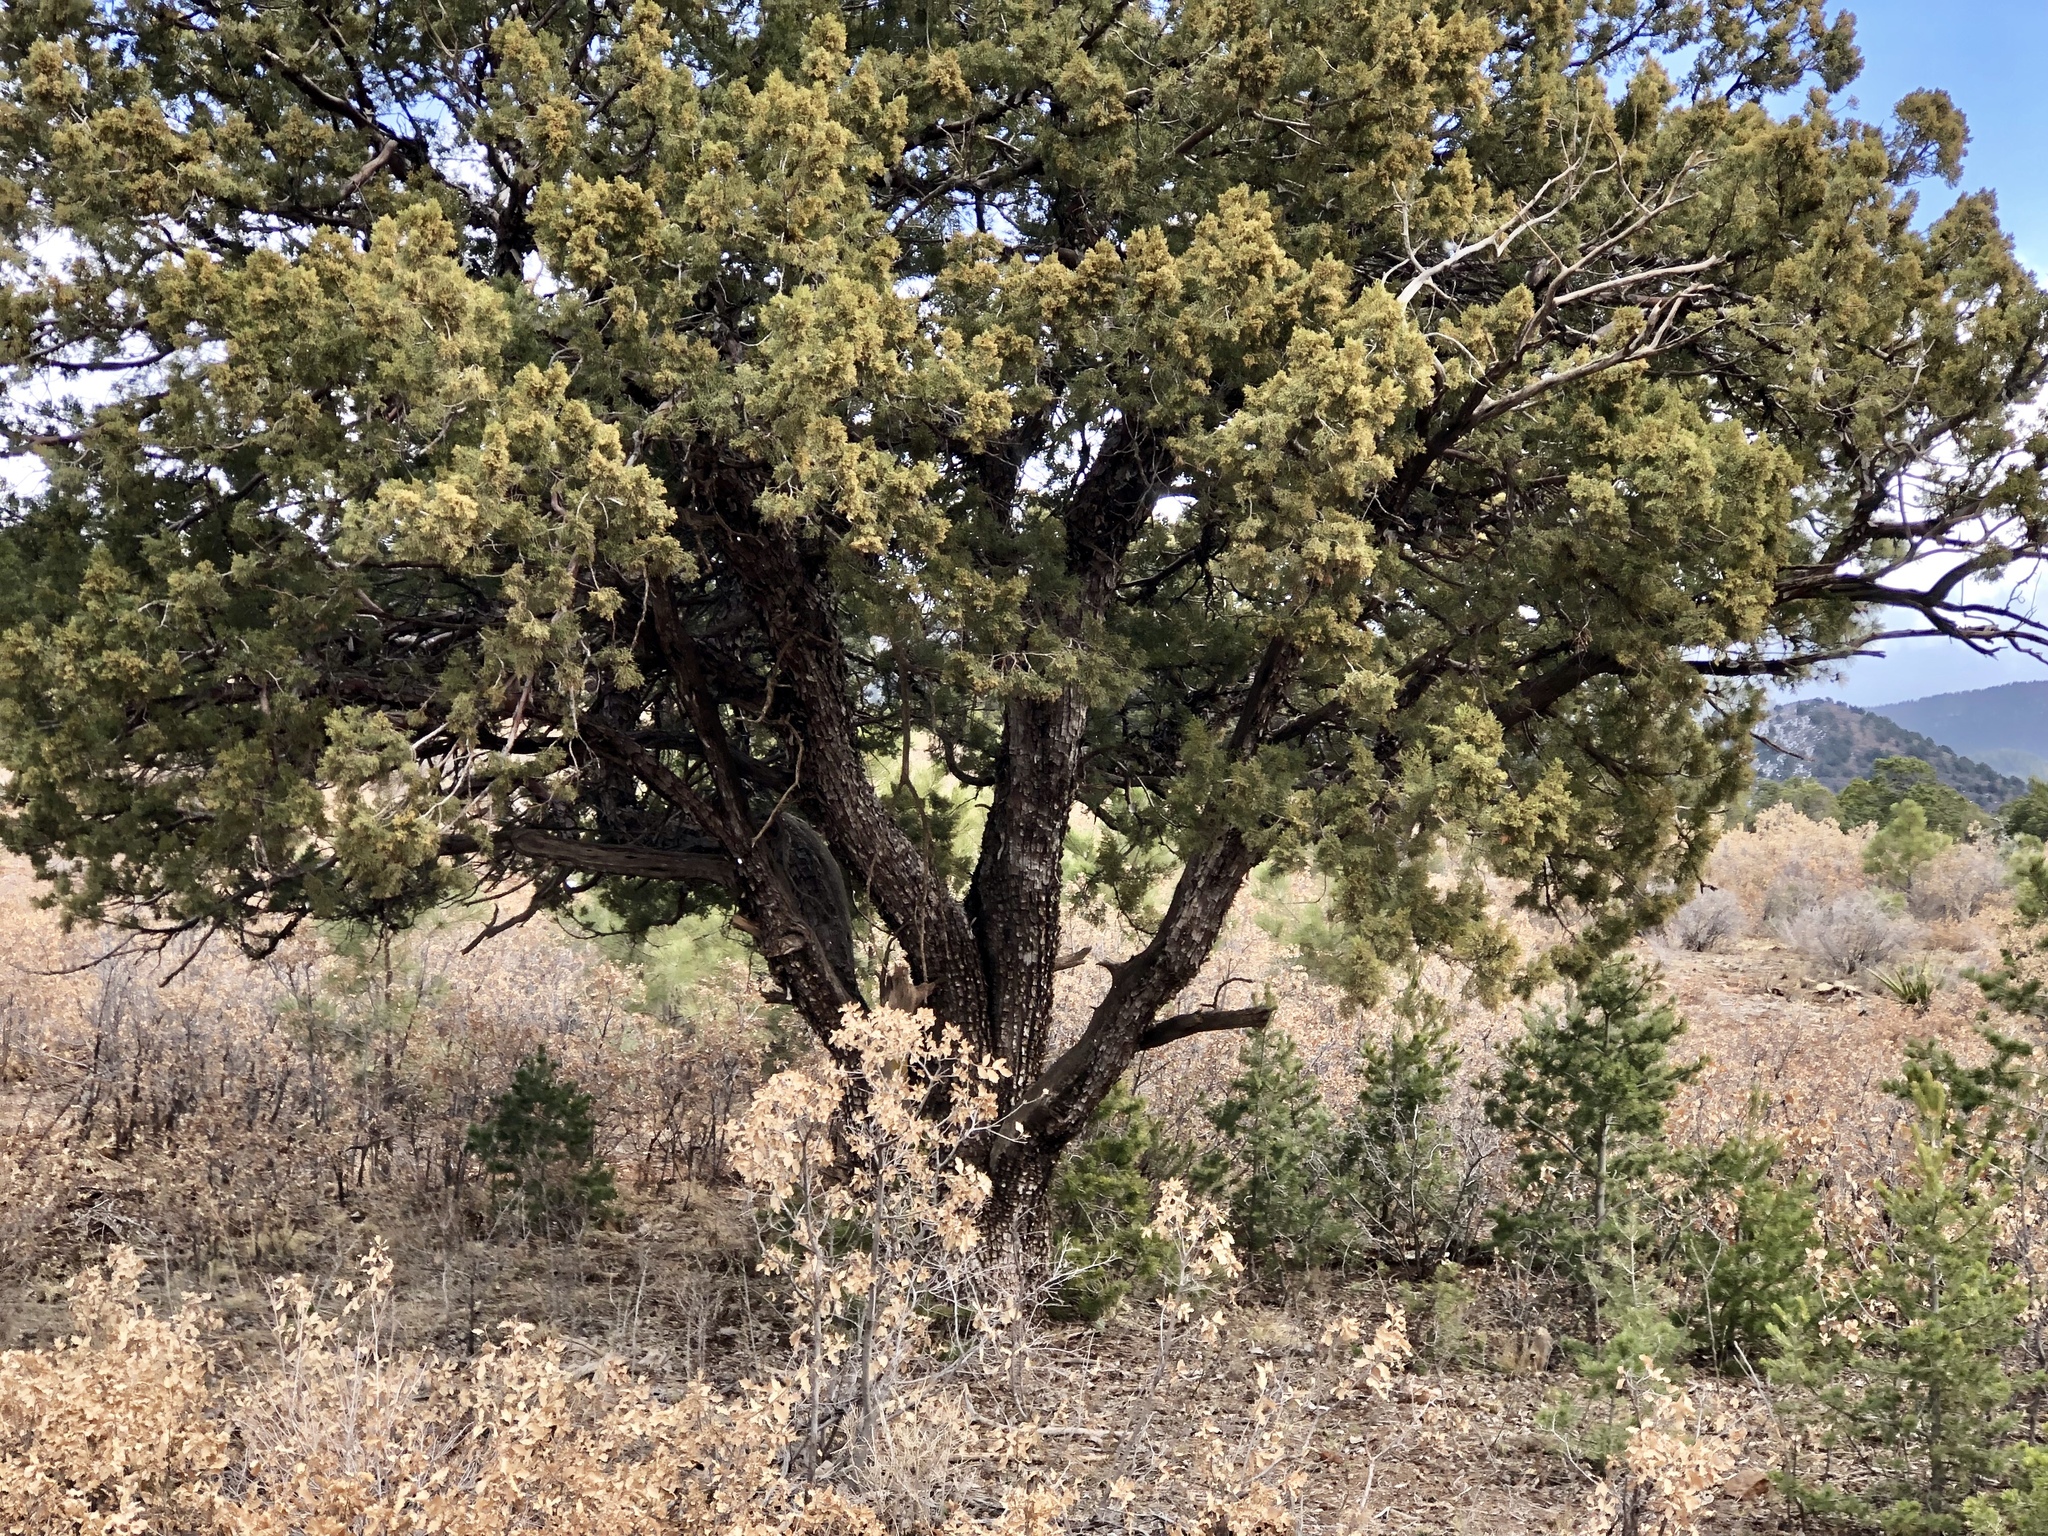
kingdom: Plantae
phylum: Tracheophyta
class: Pinopsida
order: Pinales
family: Cupressaceae
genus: Juniperus
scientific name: Juniperus deppeana
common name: Alligator juniper
